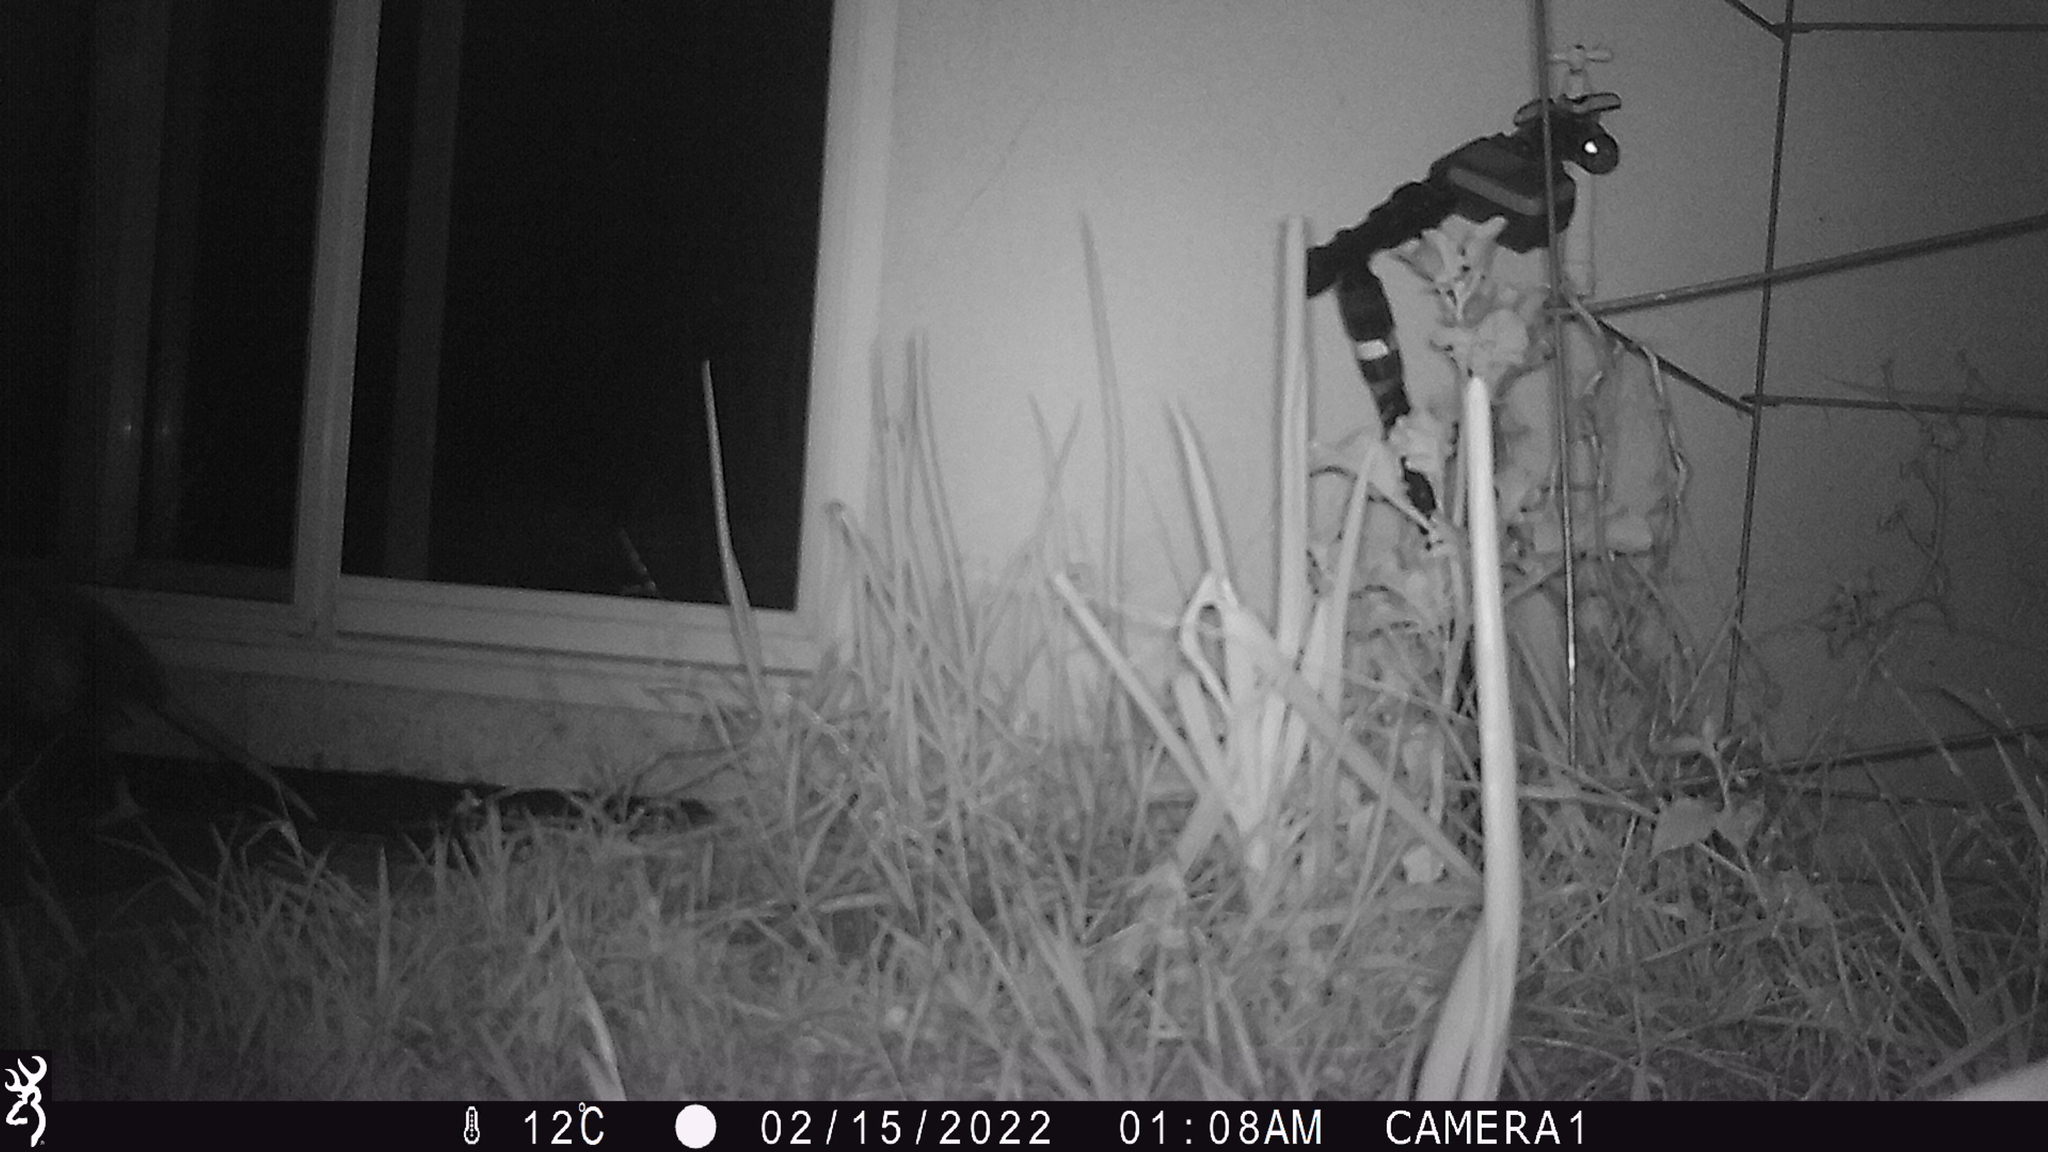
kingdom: Animalia
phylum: Chordata
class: Mammalia
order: Didelphimorphia
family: Didelphidae
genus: Didelphis
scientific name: Didelphis virginiana
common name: Virginia opossum
